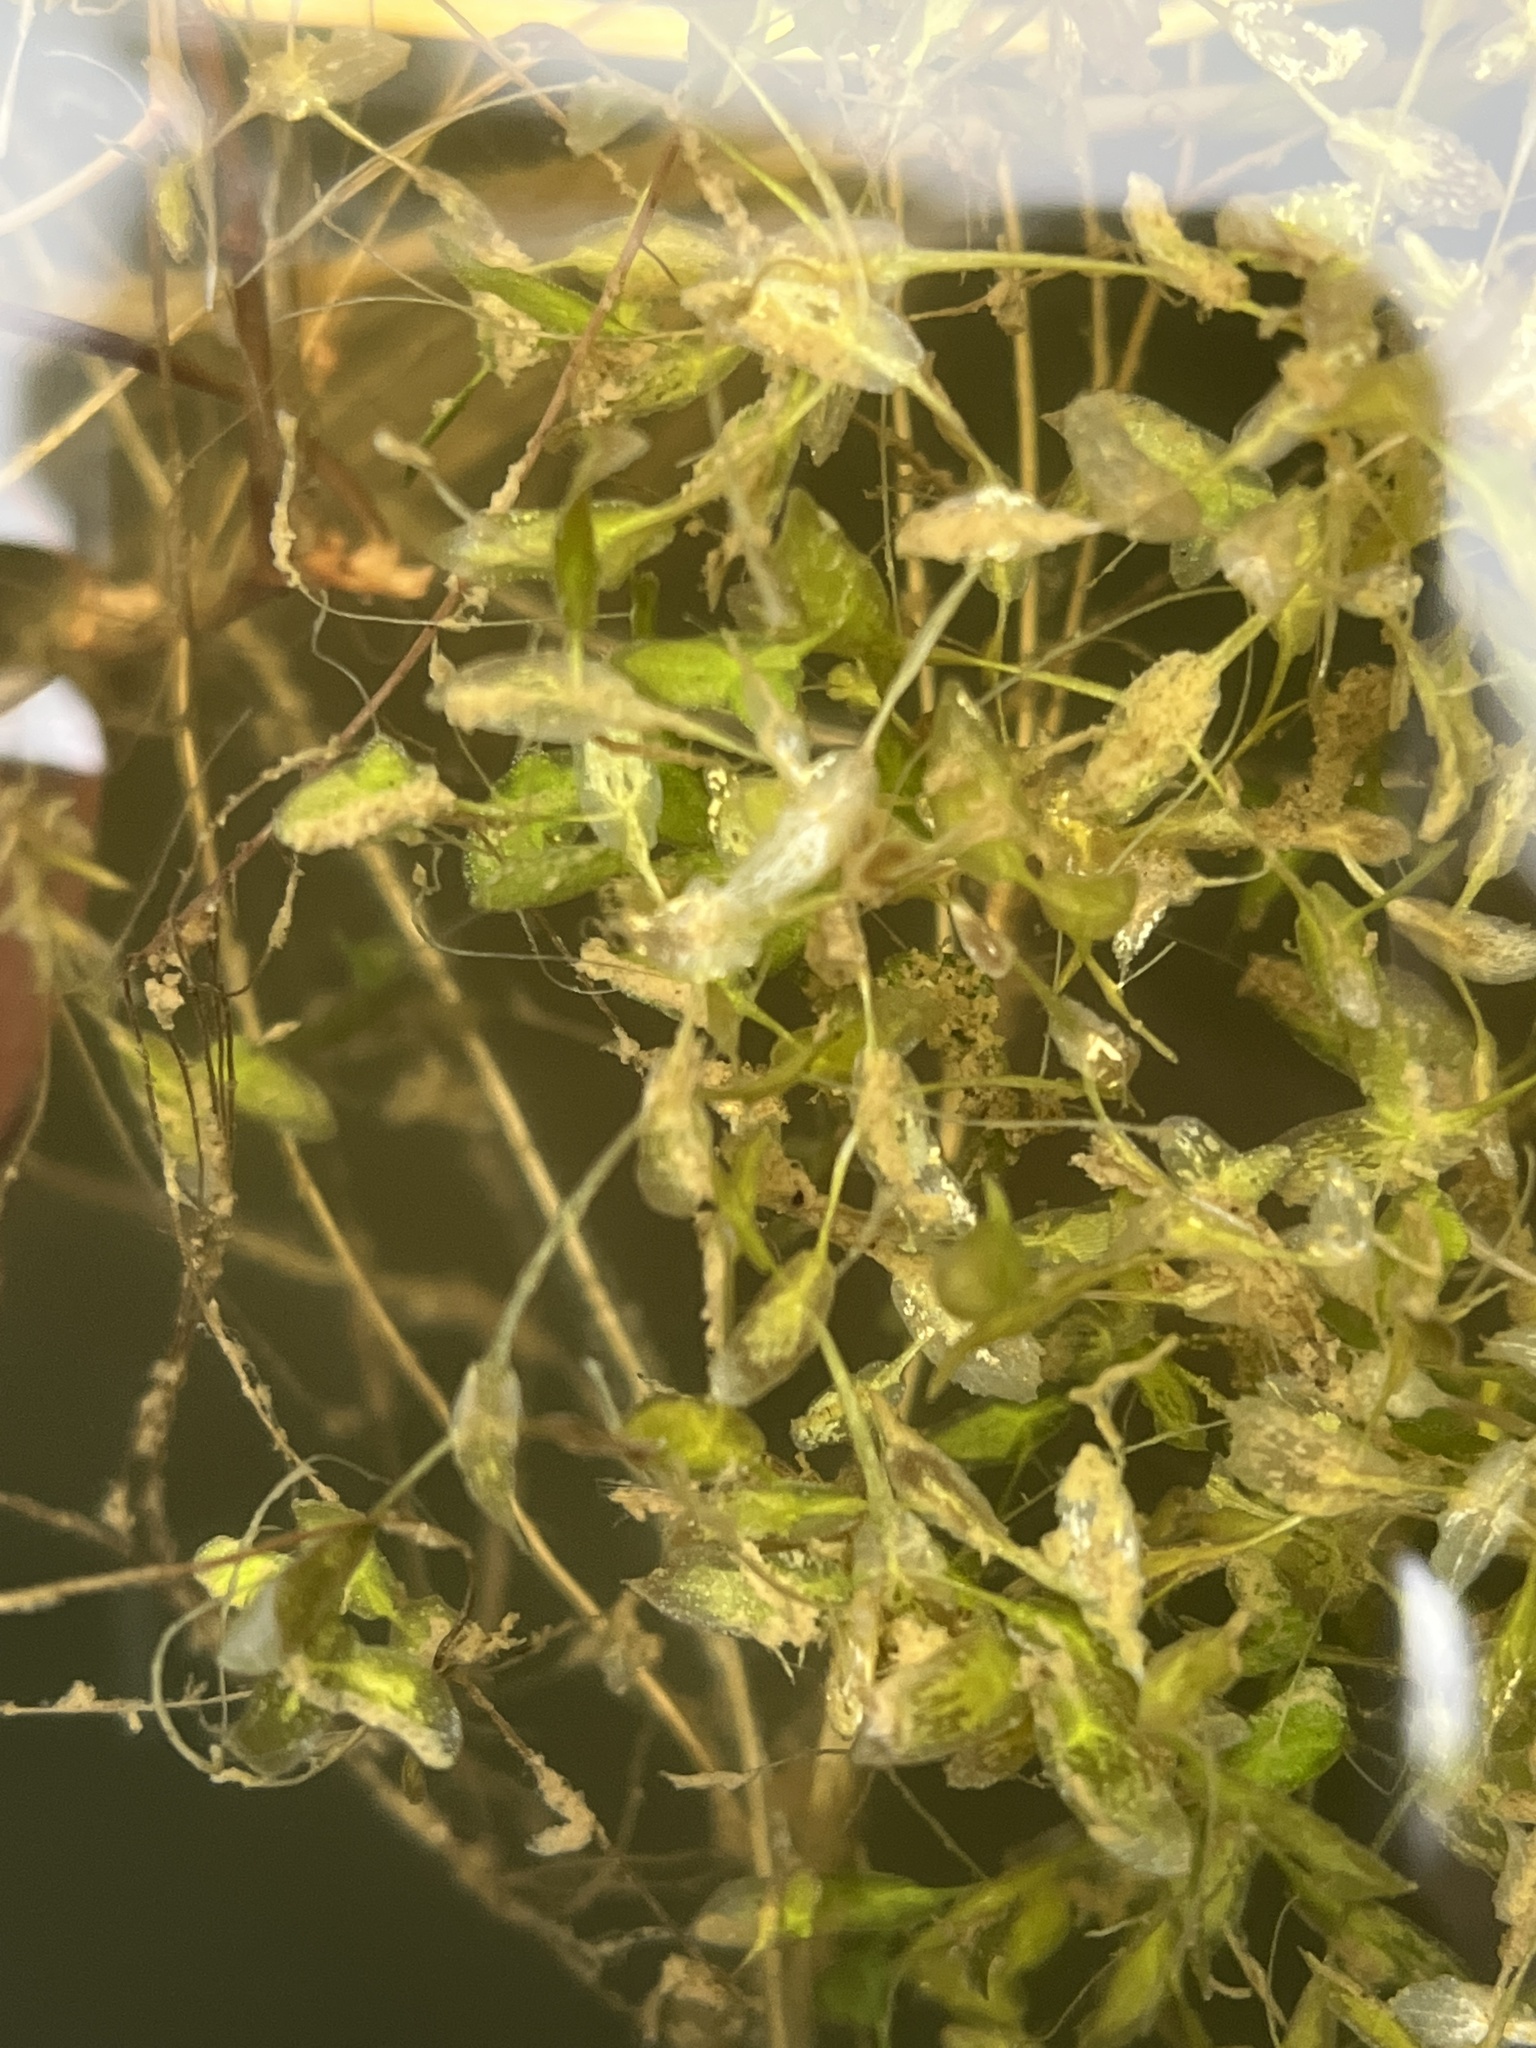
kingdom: Plantae
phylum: Tracheophyta
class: Liliopsida
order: Alismatales
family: Araceae
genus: Lemna
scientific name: Lemna trisulca
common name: Ivy-leaved duckweed
